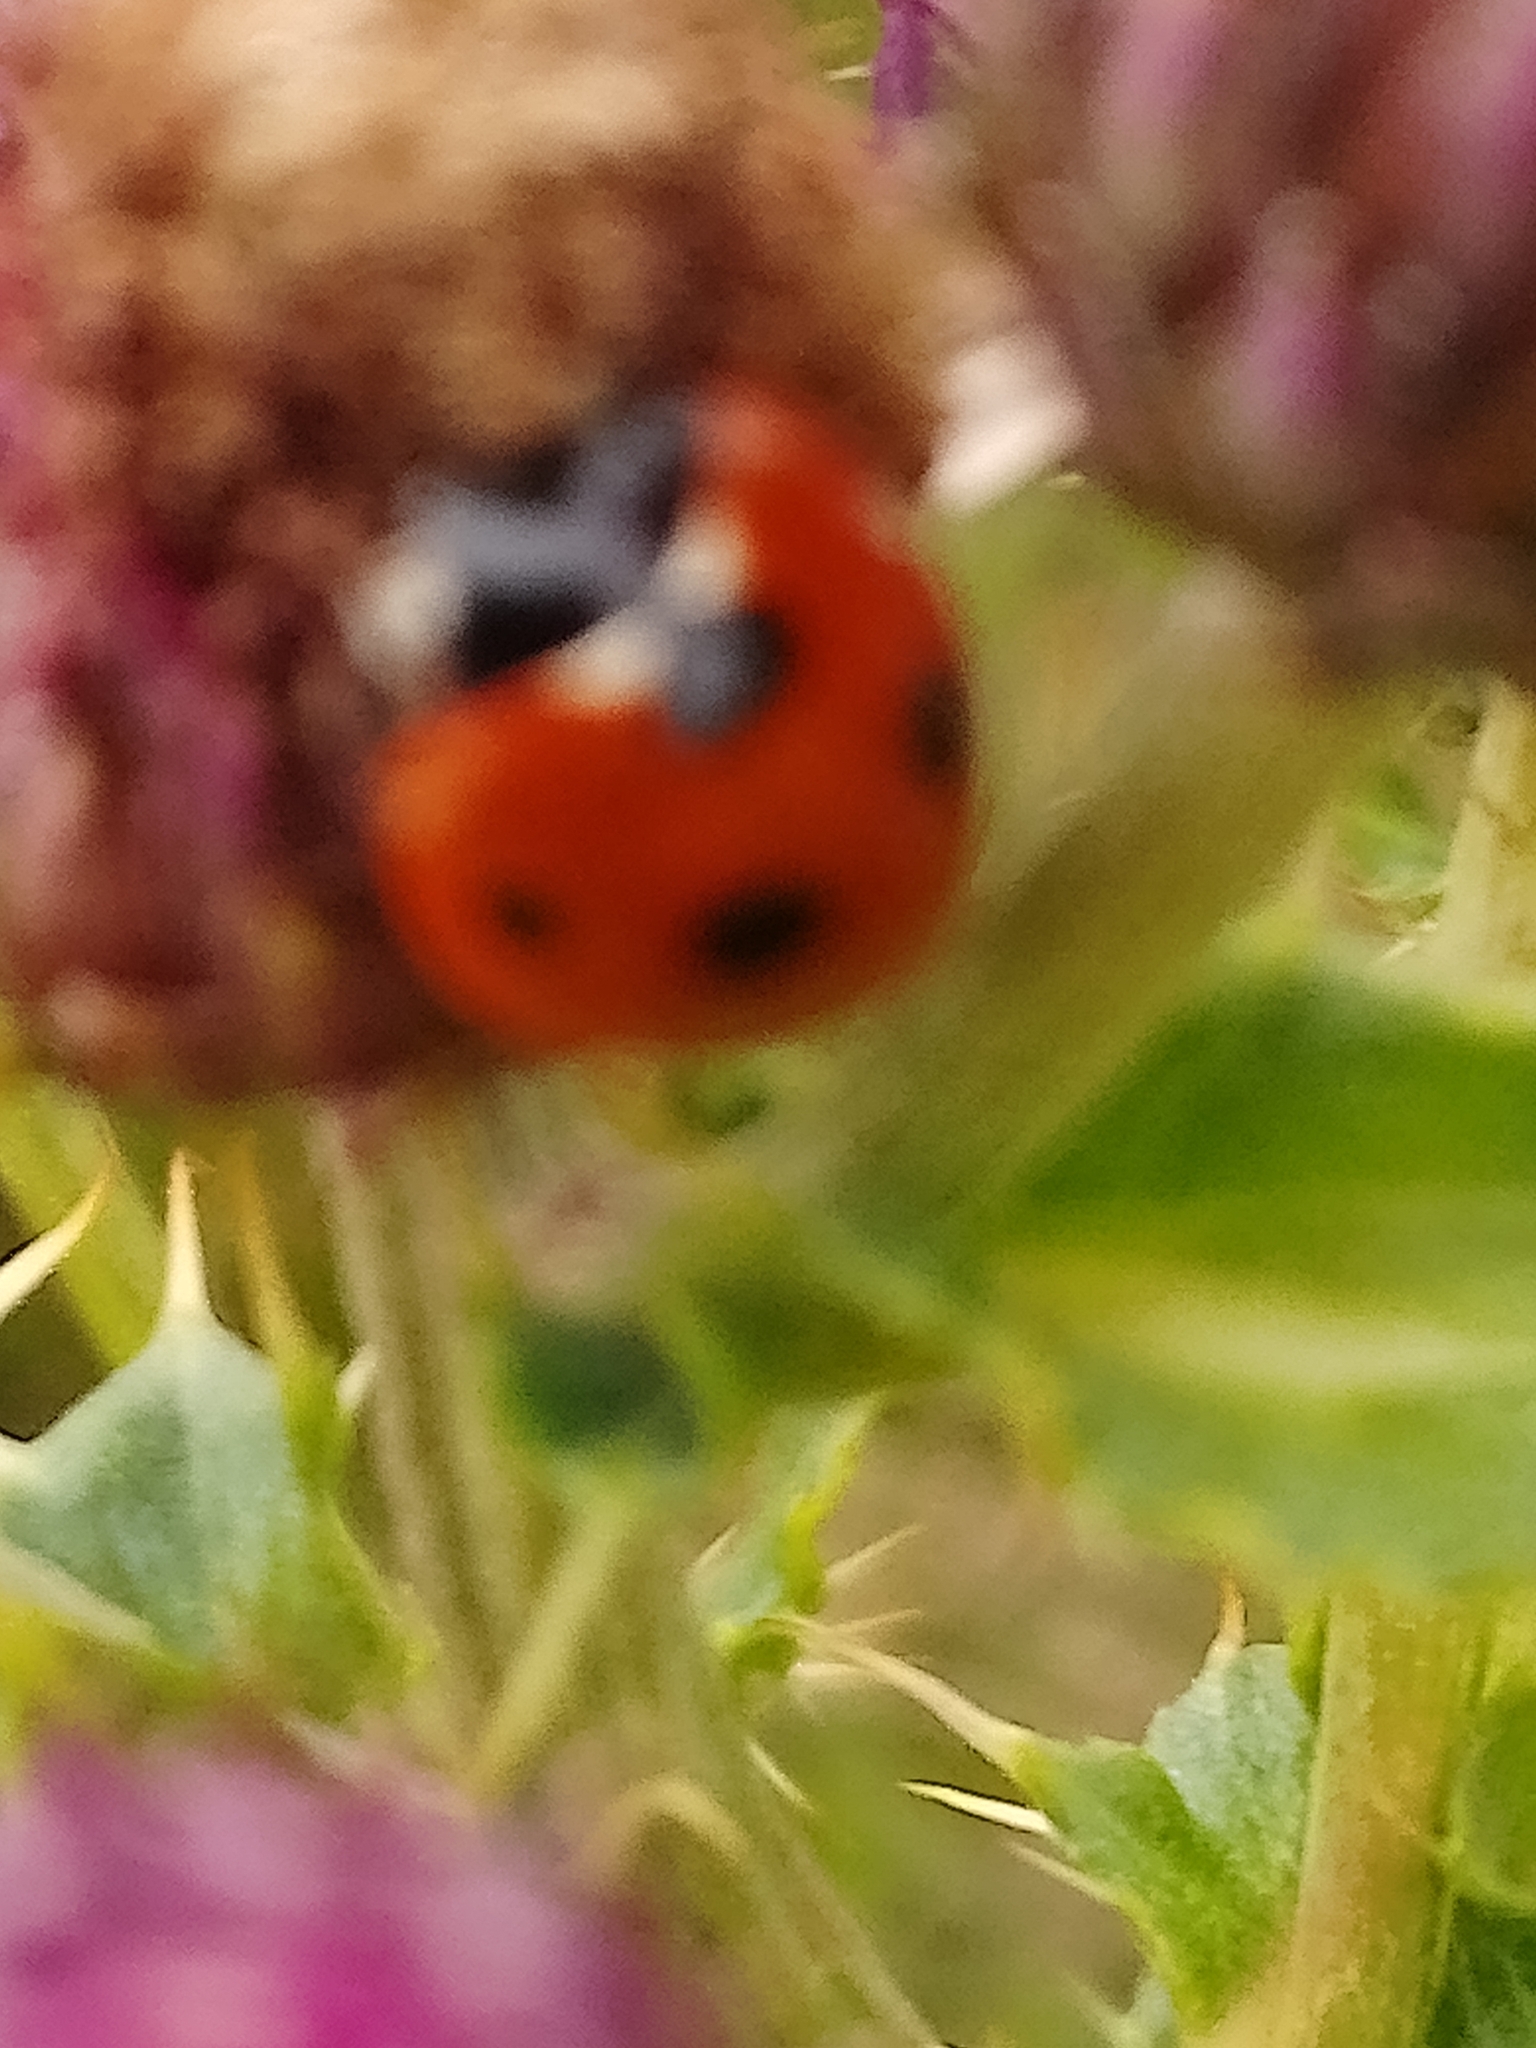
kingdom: Animalia
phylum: Arthropoda
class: Insecta
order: Coleoptera
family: Coccinellidae
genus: Coccinella
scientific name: Coccinella septempunctata
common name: Sevenspotted lady beetle
